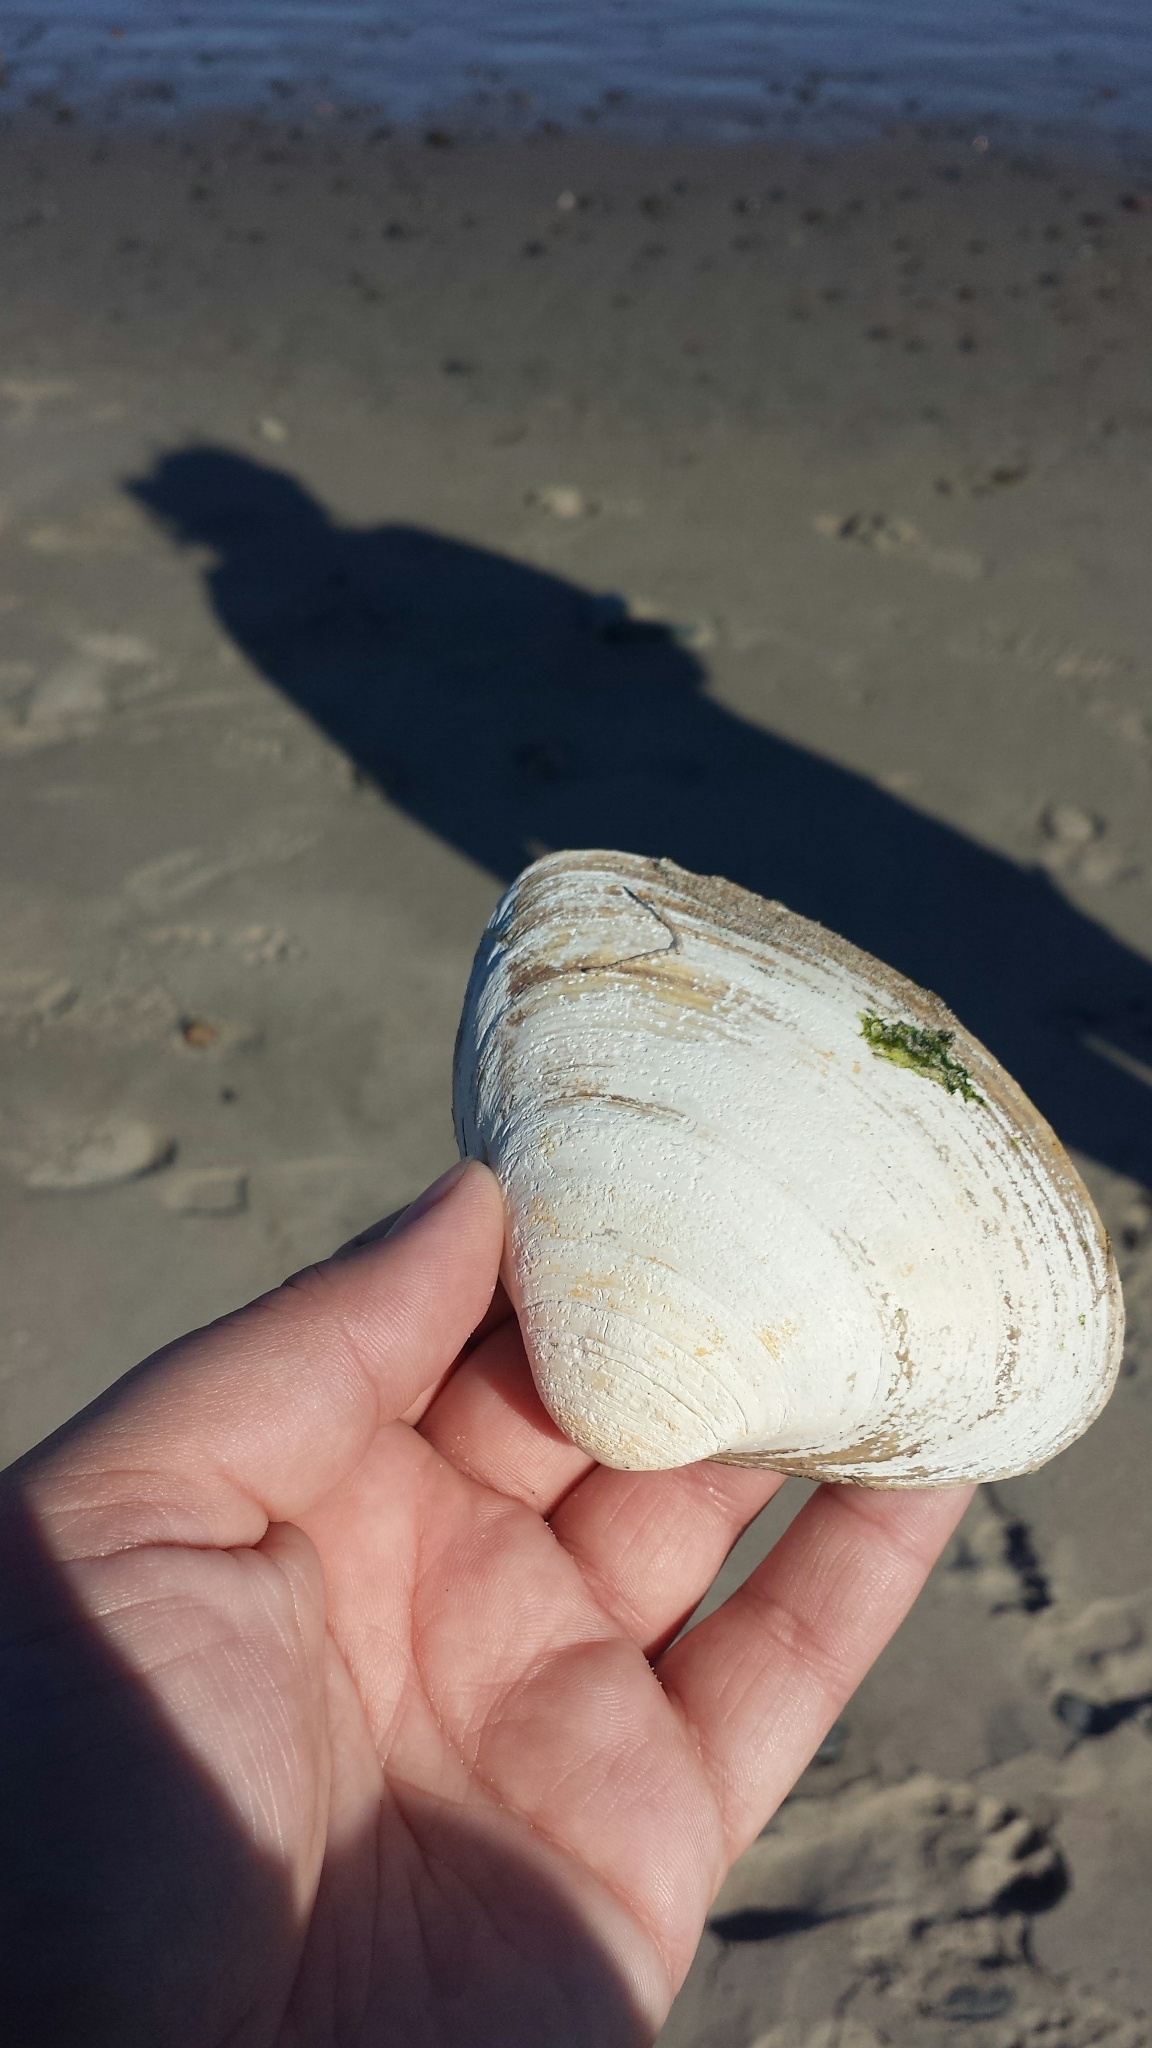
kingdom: Animalia
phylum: Mollusca
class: Bivalvia
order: Venerida
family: Mactridae
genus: Spisula
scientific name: Spisula solidissima
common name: Atlantic surf clam
